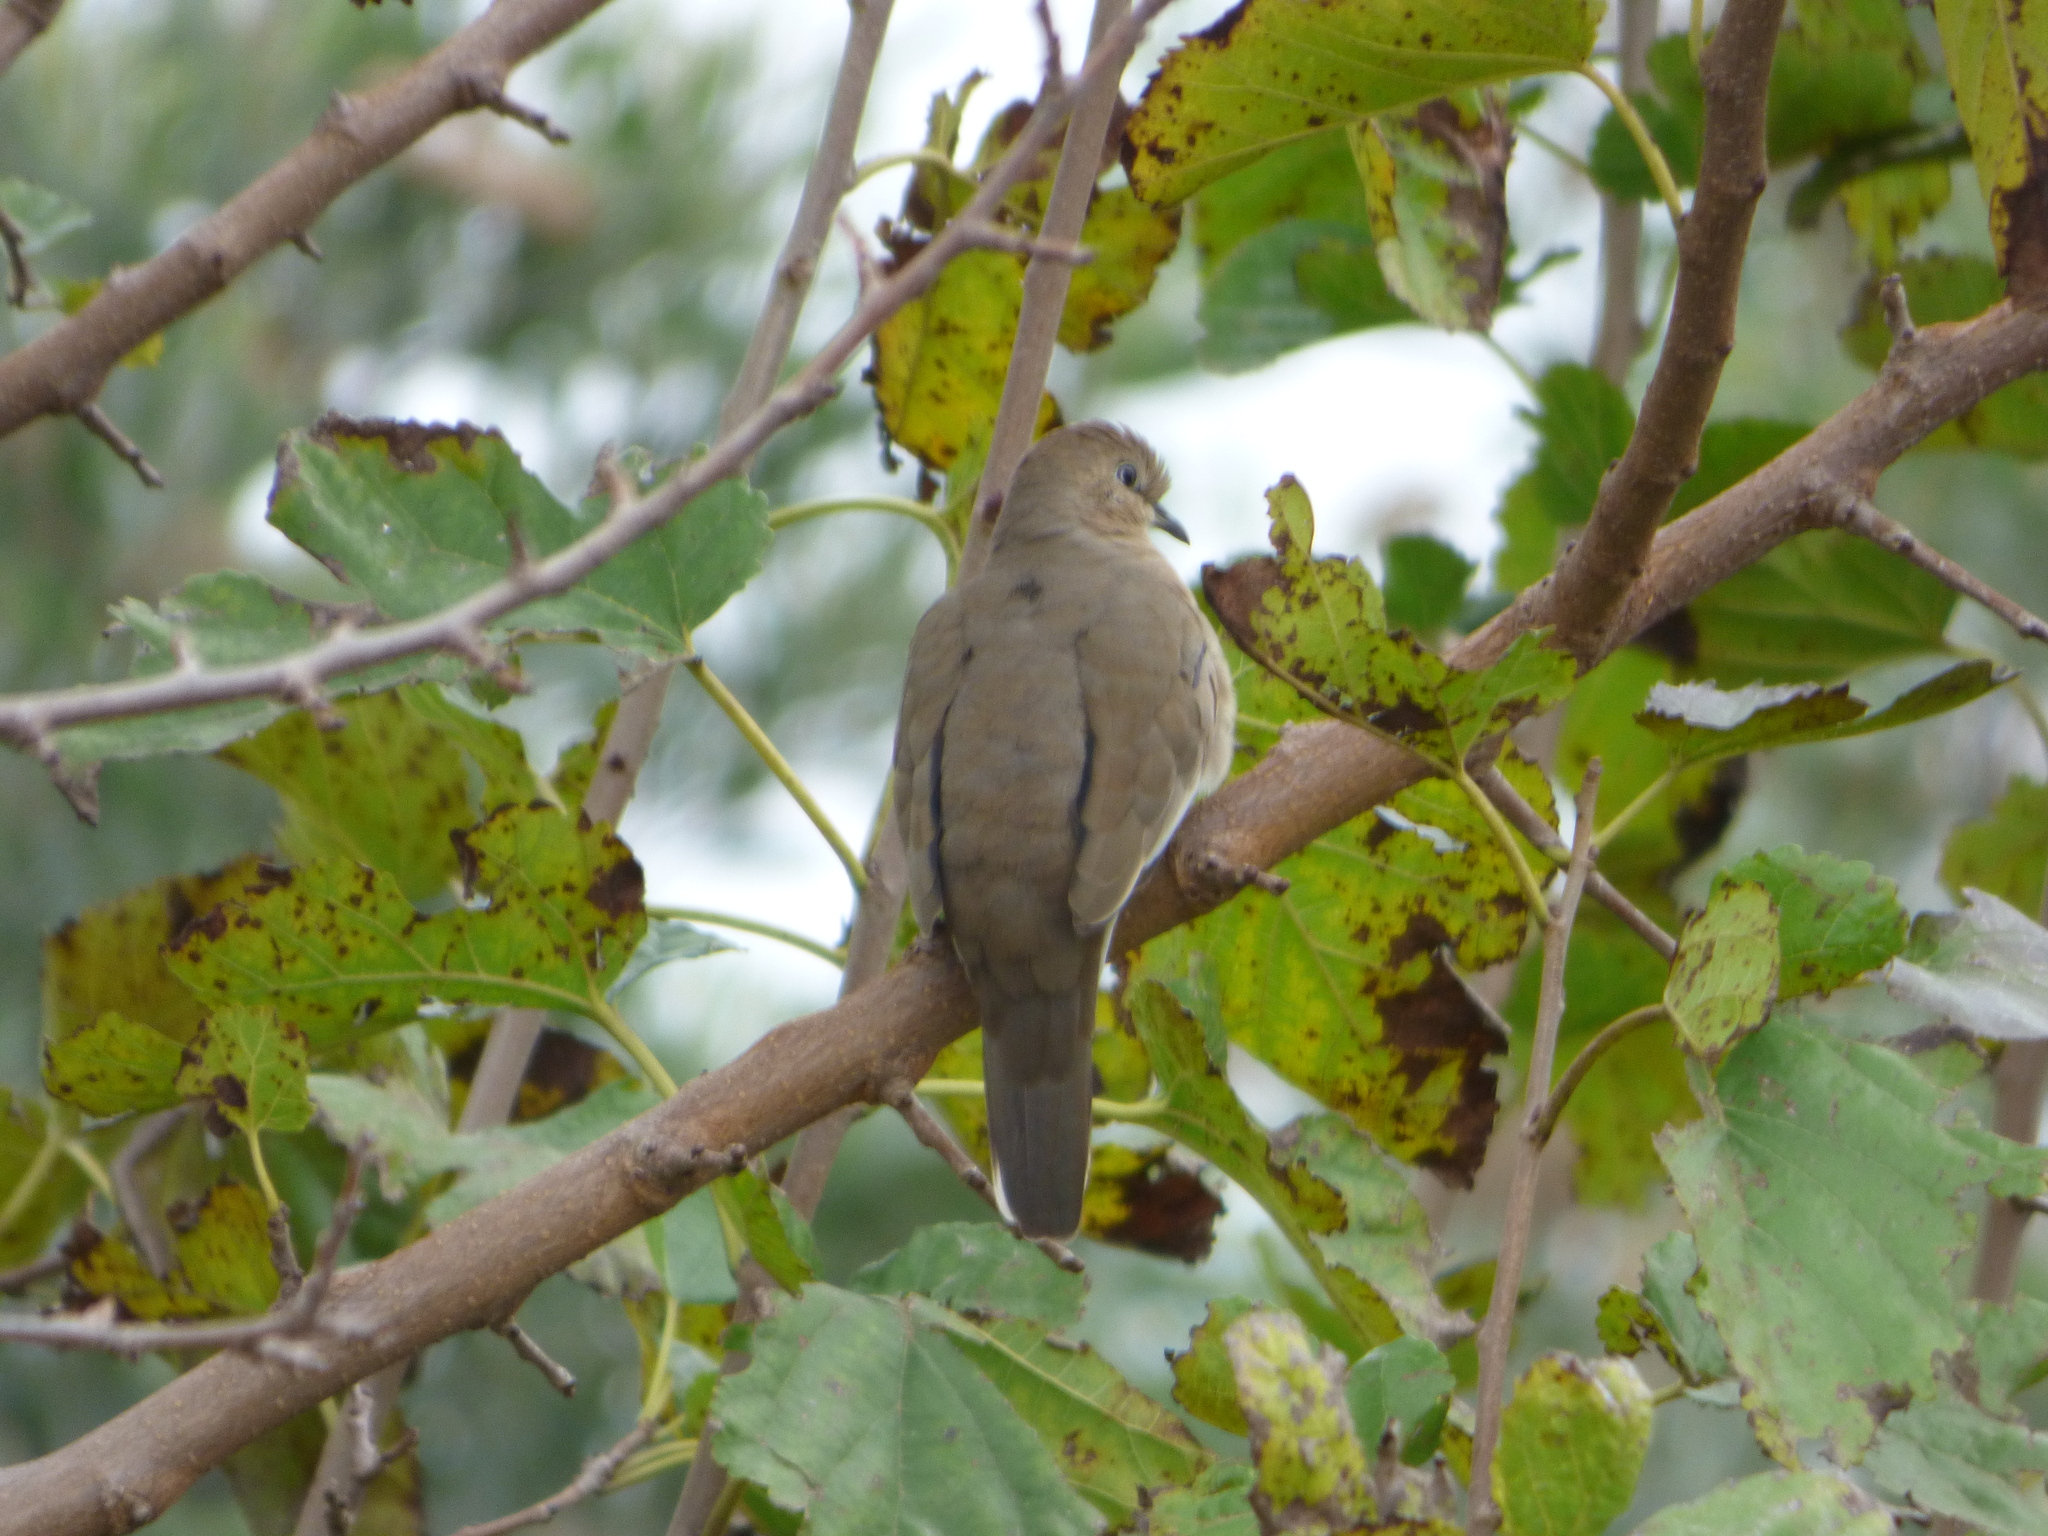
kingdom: Animalia
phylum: Chordata
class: Aves
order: Columbiformes
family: Columbidae
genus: Columbina
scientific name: Columbina picui
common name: Picui ground dove
